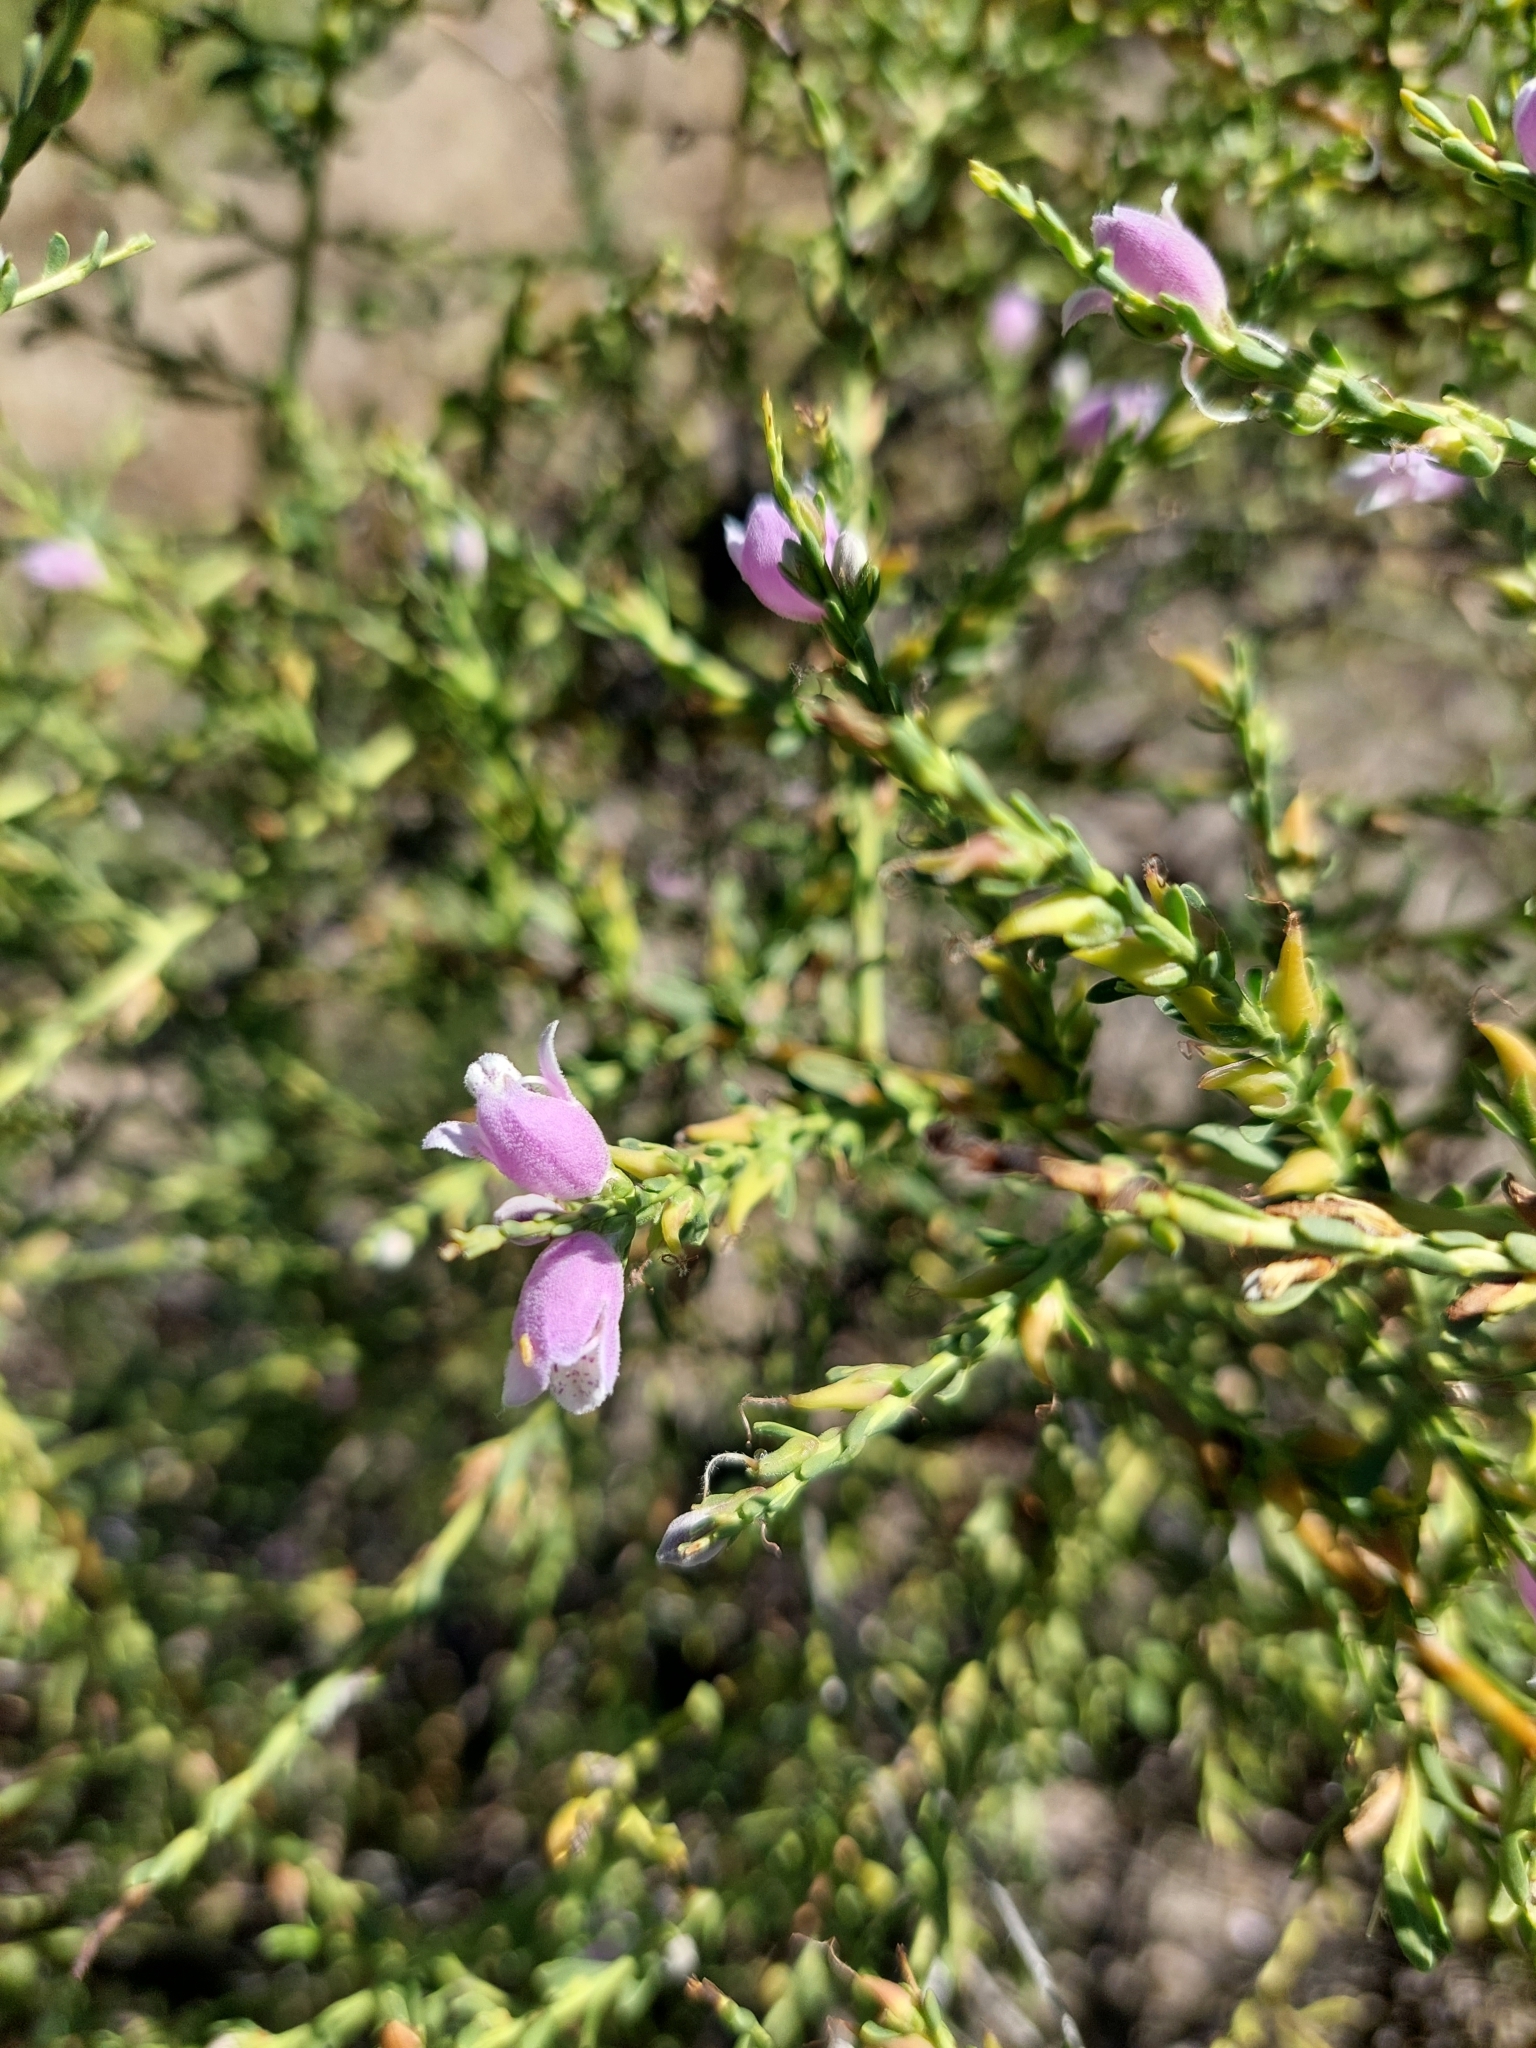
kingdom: Plantae
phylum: Tracheophyta
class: Magnoliopsida
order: Lamiales
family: Scrophulariaceae
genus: Eremophila
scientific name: Eremophila divaricata
